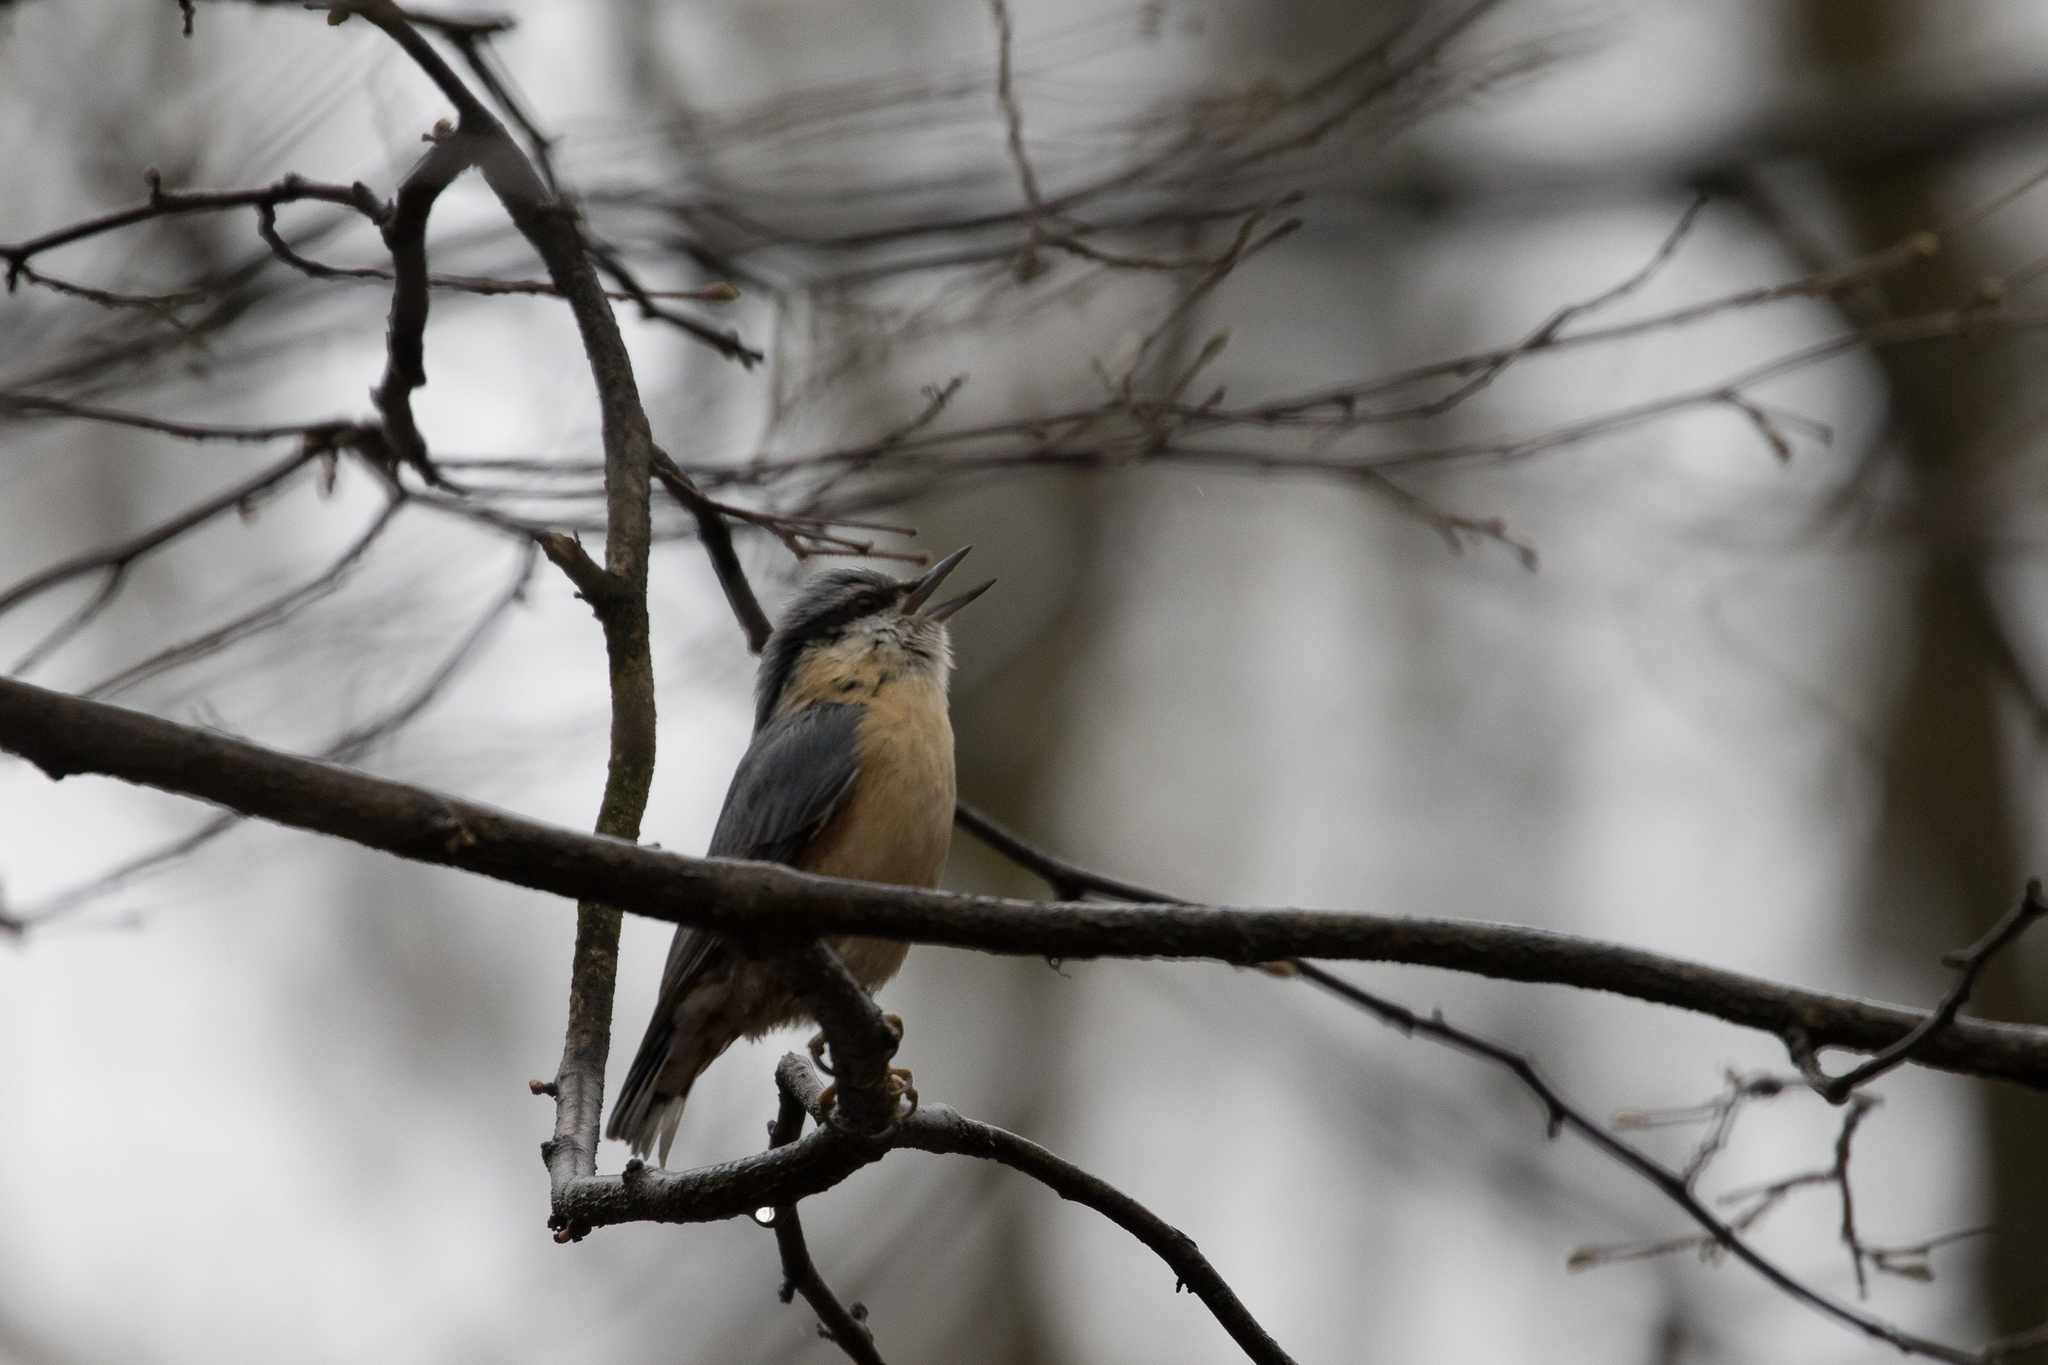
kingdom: Animalia
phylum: Chordata
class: Aves
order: Passeriformes
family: Sittidae
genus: Sitta
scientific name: Sitta europaea
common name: Eurasian nuthatch
